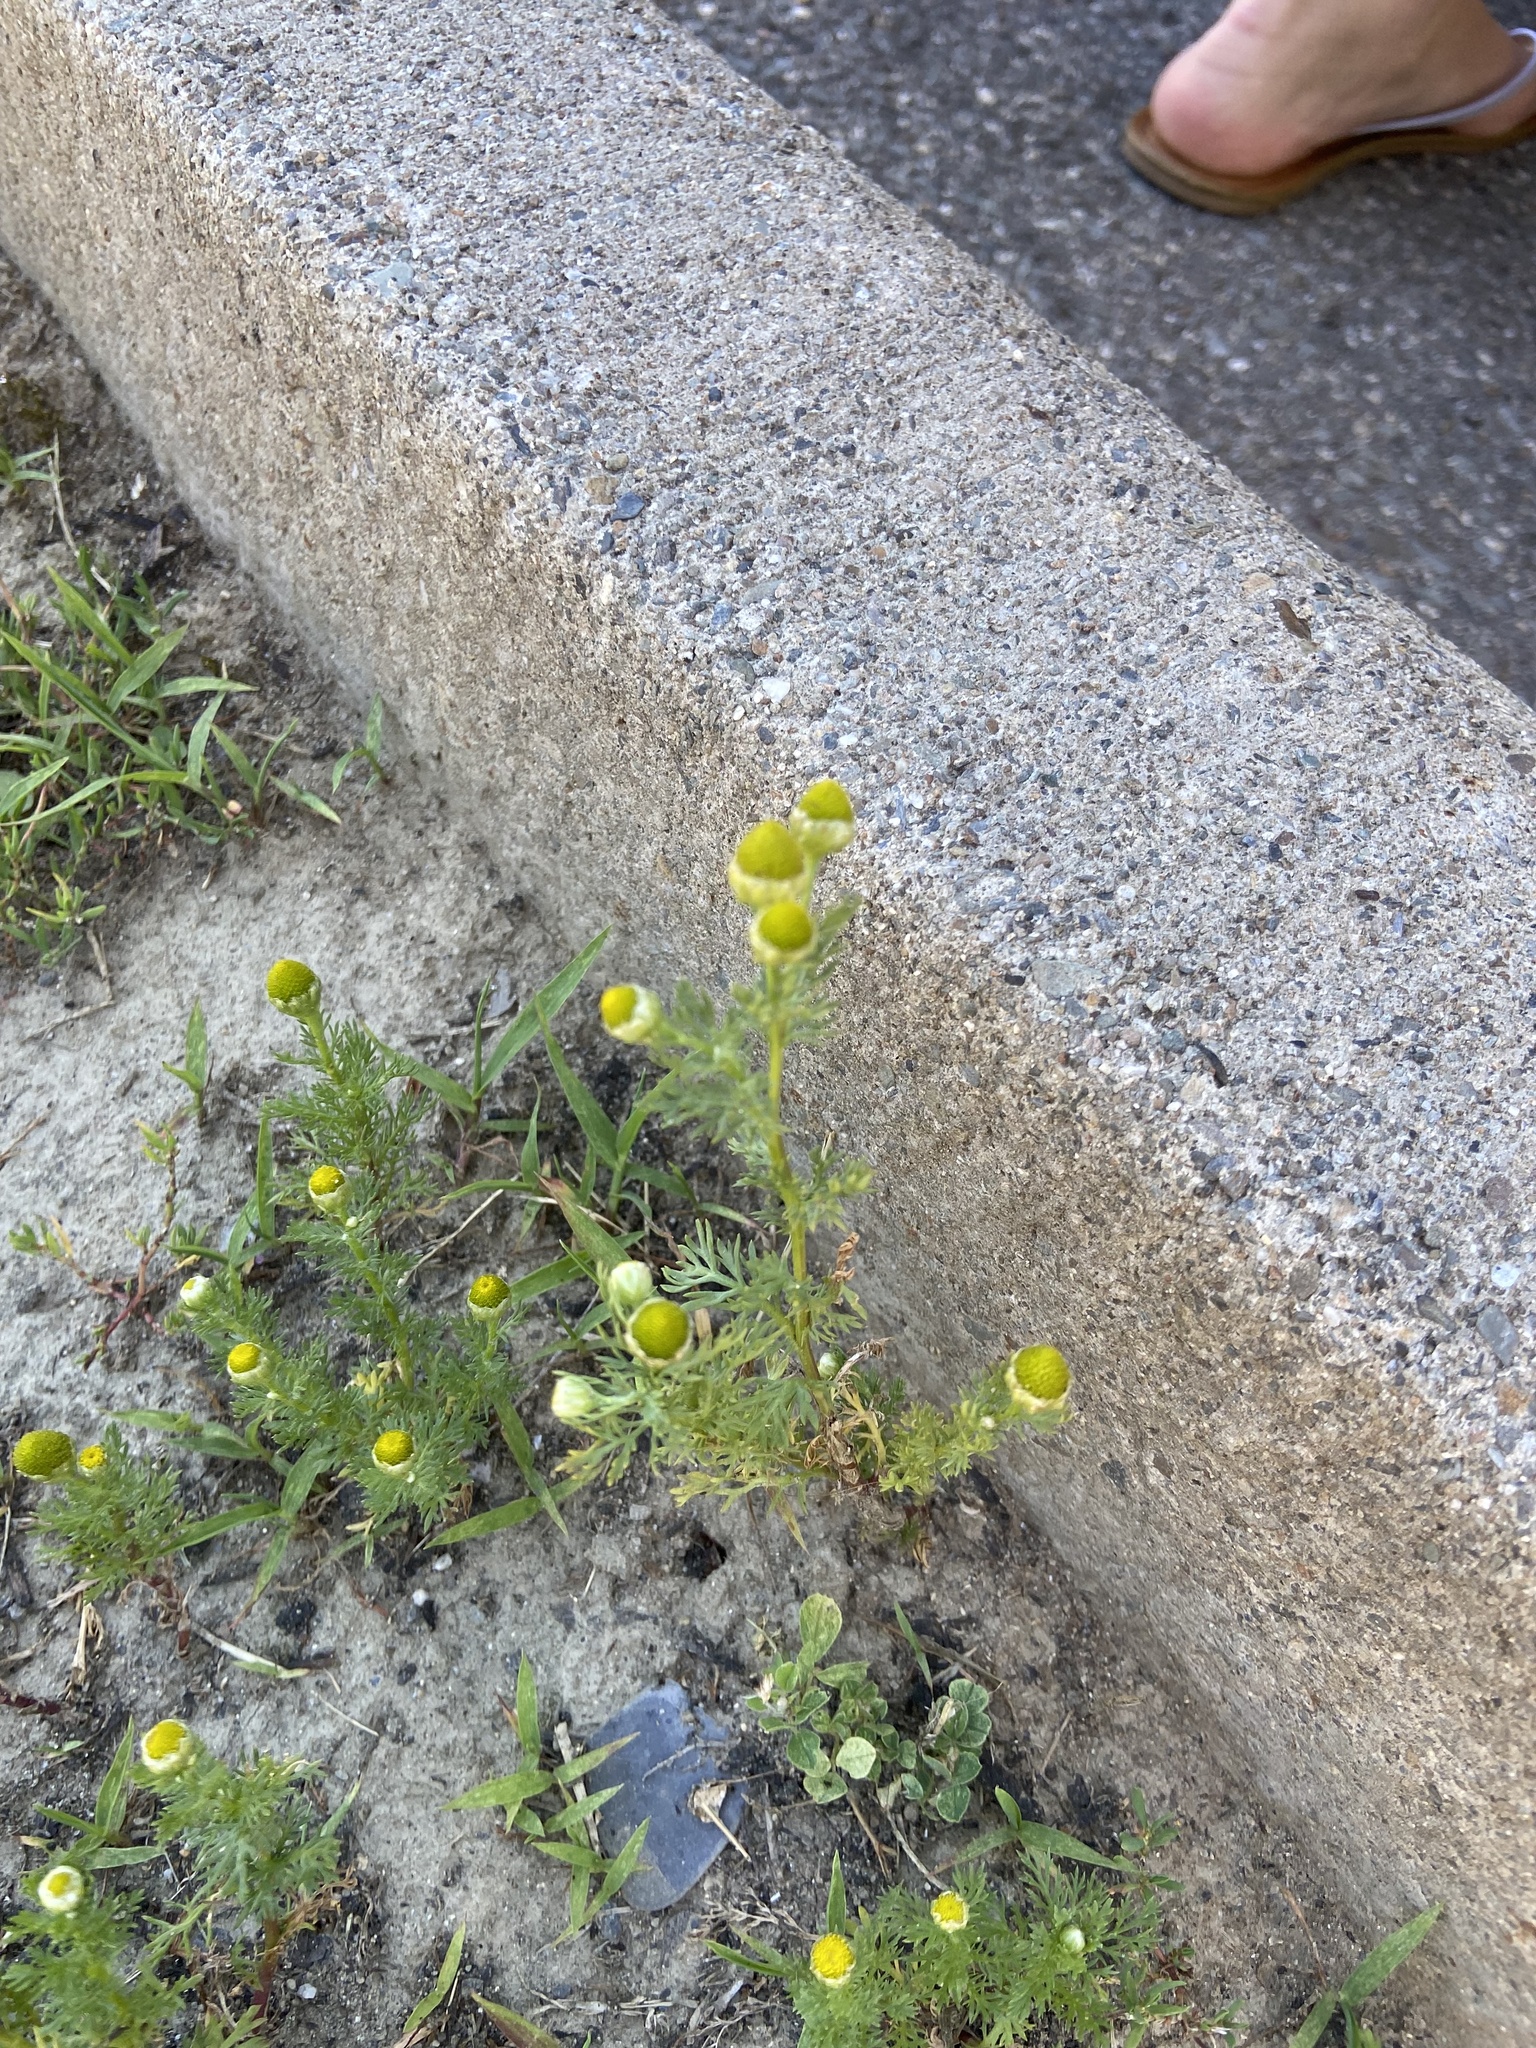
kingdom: Plantae
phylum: Tracheophyta
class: Magnoliopsida
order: Asterales
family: Asteraceae
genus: Matricaria
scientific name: Matricaria discoidea
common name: Disc mayweed
